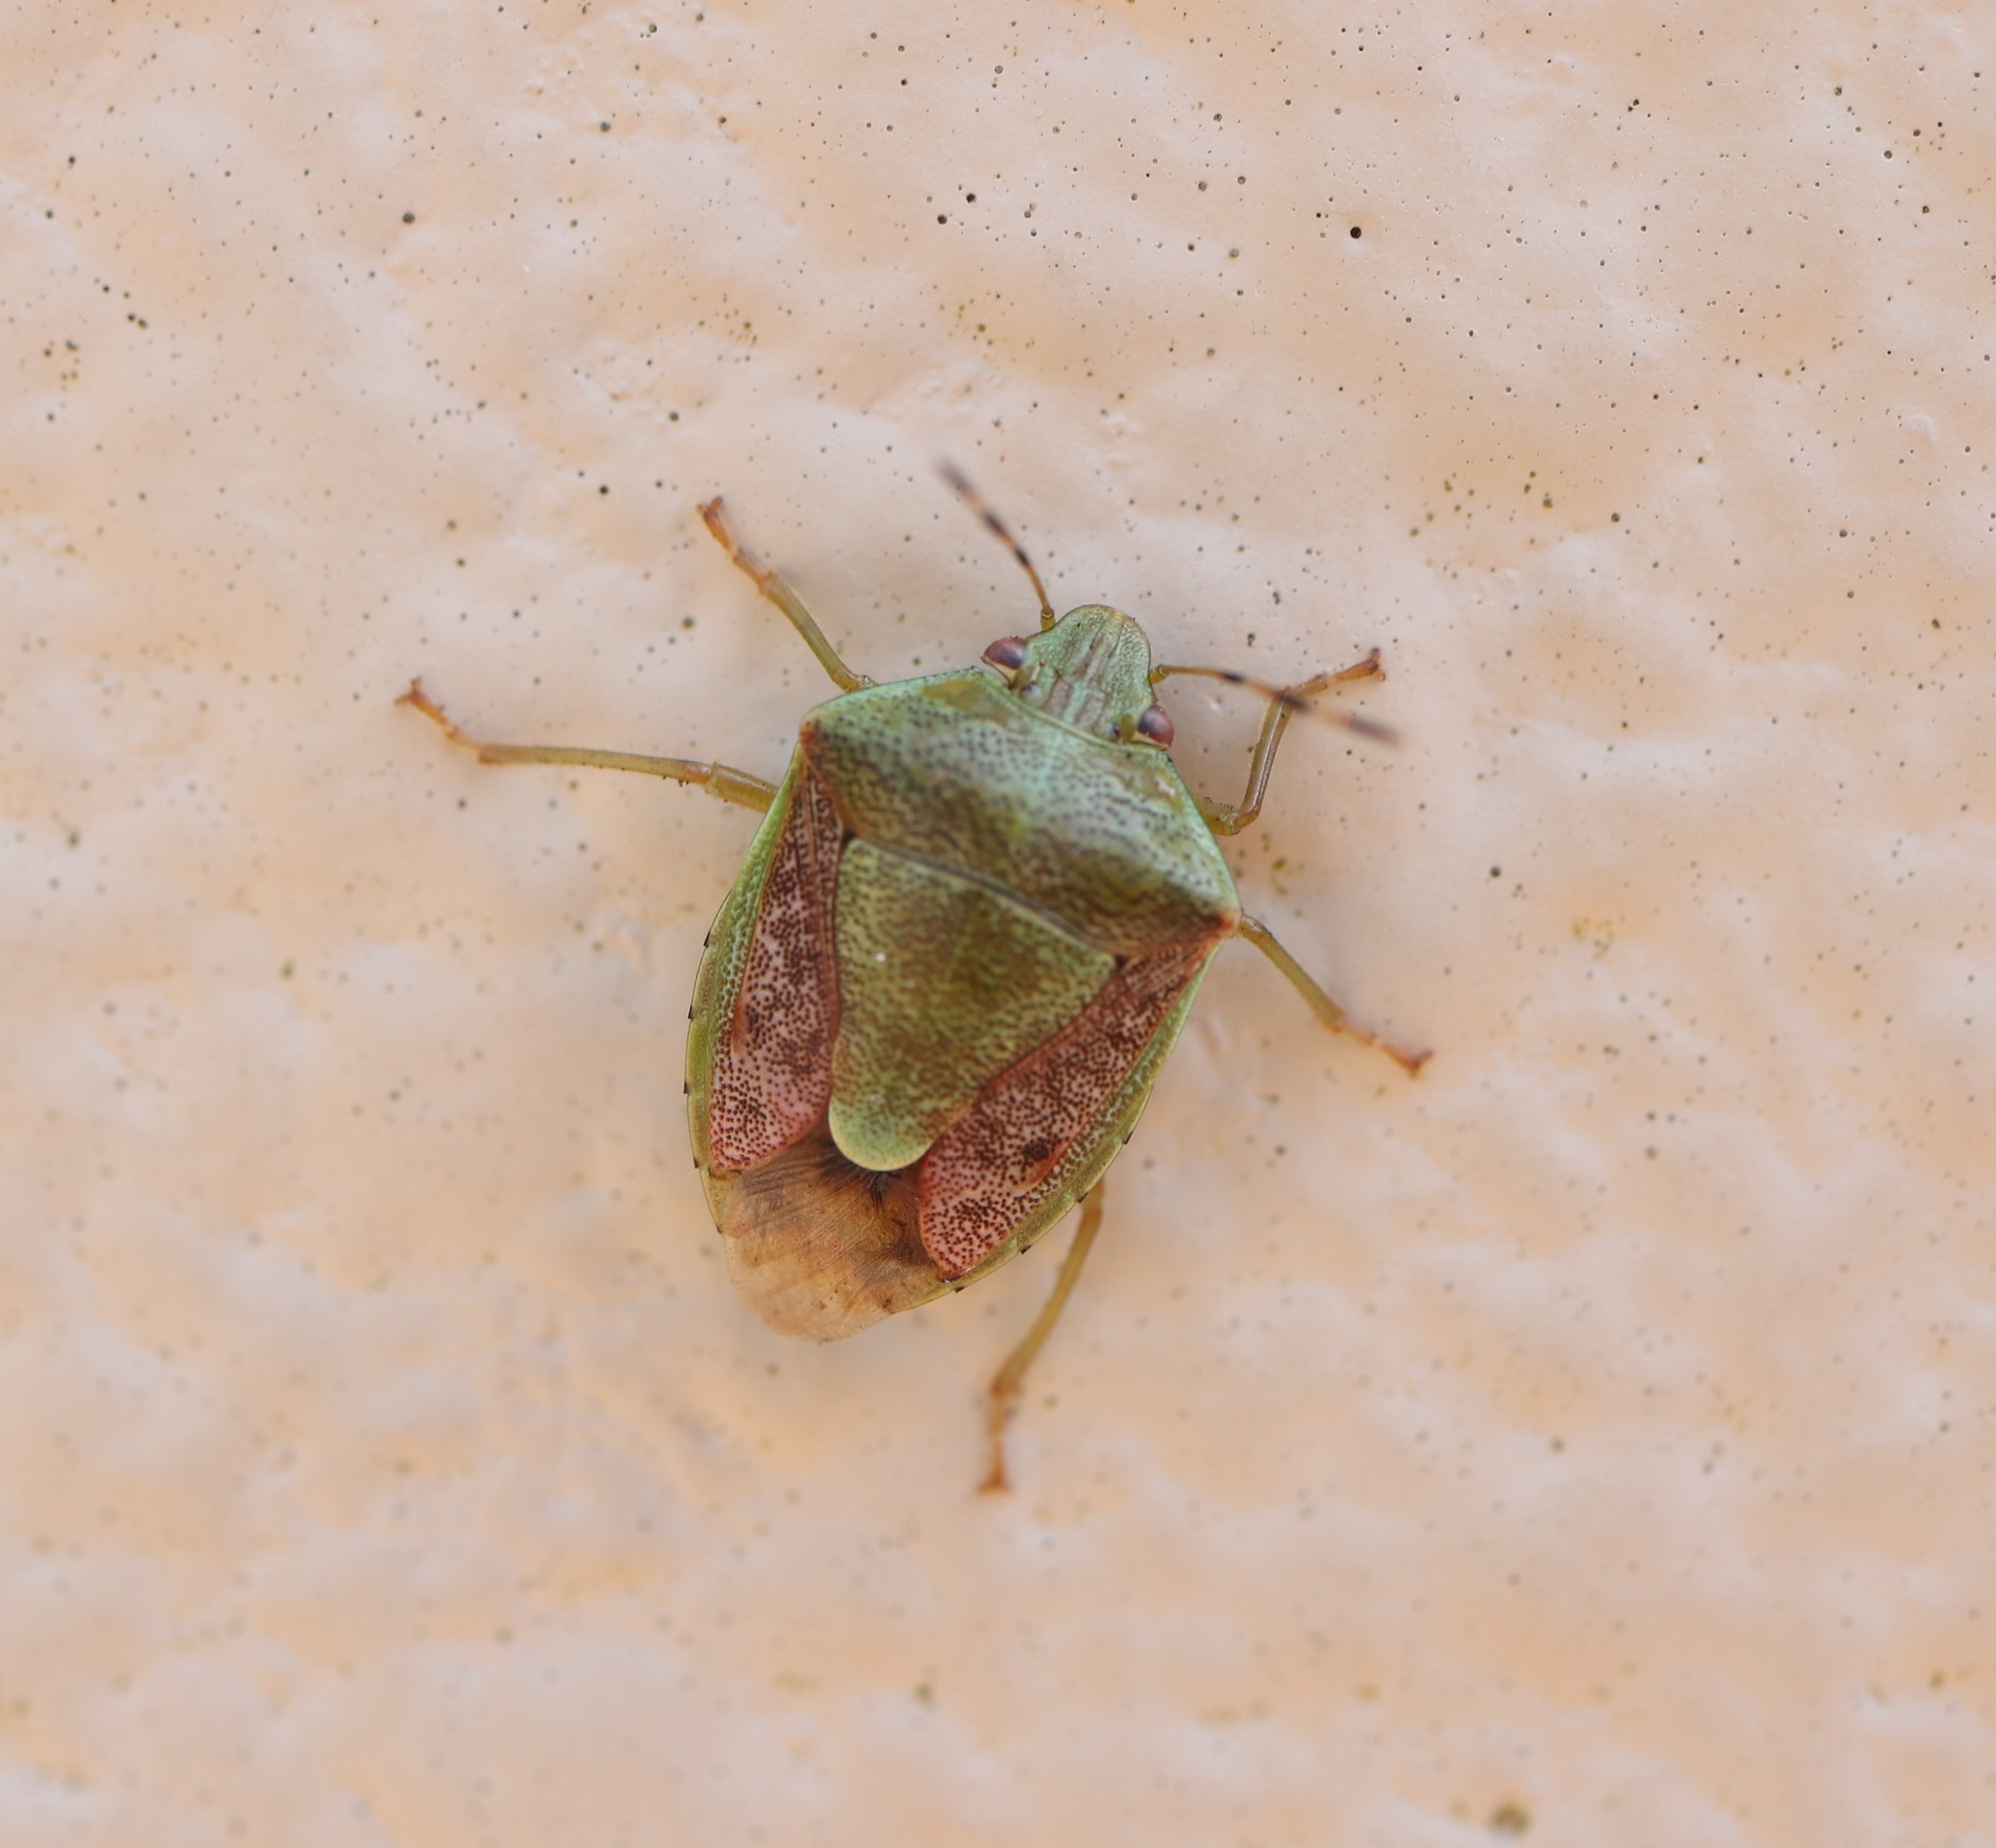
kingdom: Animalia
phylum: Arthropoda
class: Insecta
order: Hemiptera
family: Pentatomidae
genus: Plautia
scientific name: Plautia stali
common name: Stink bug
